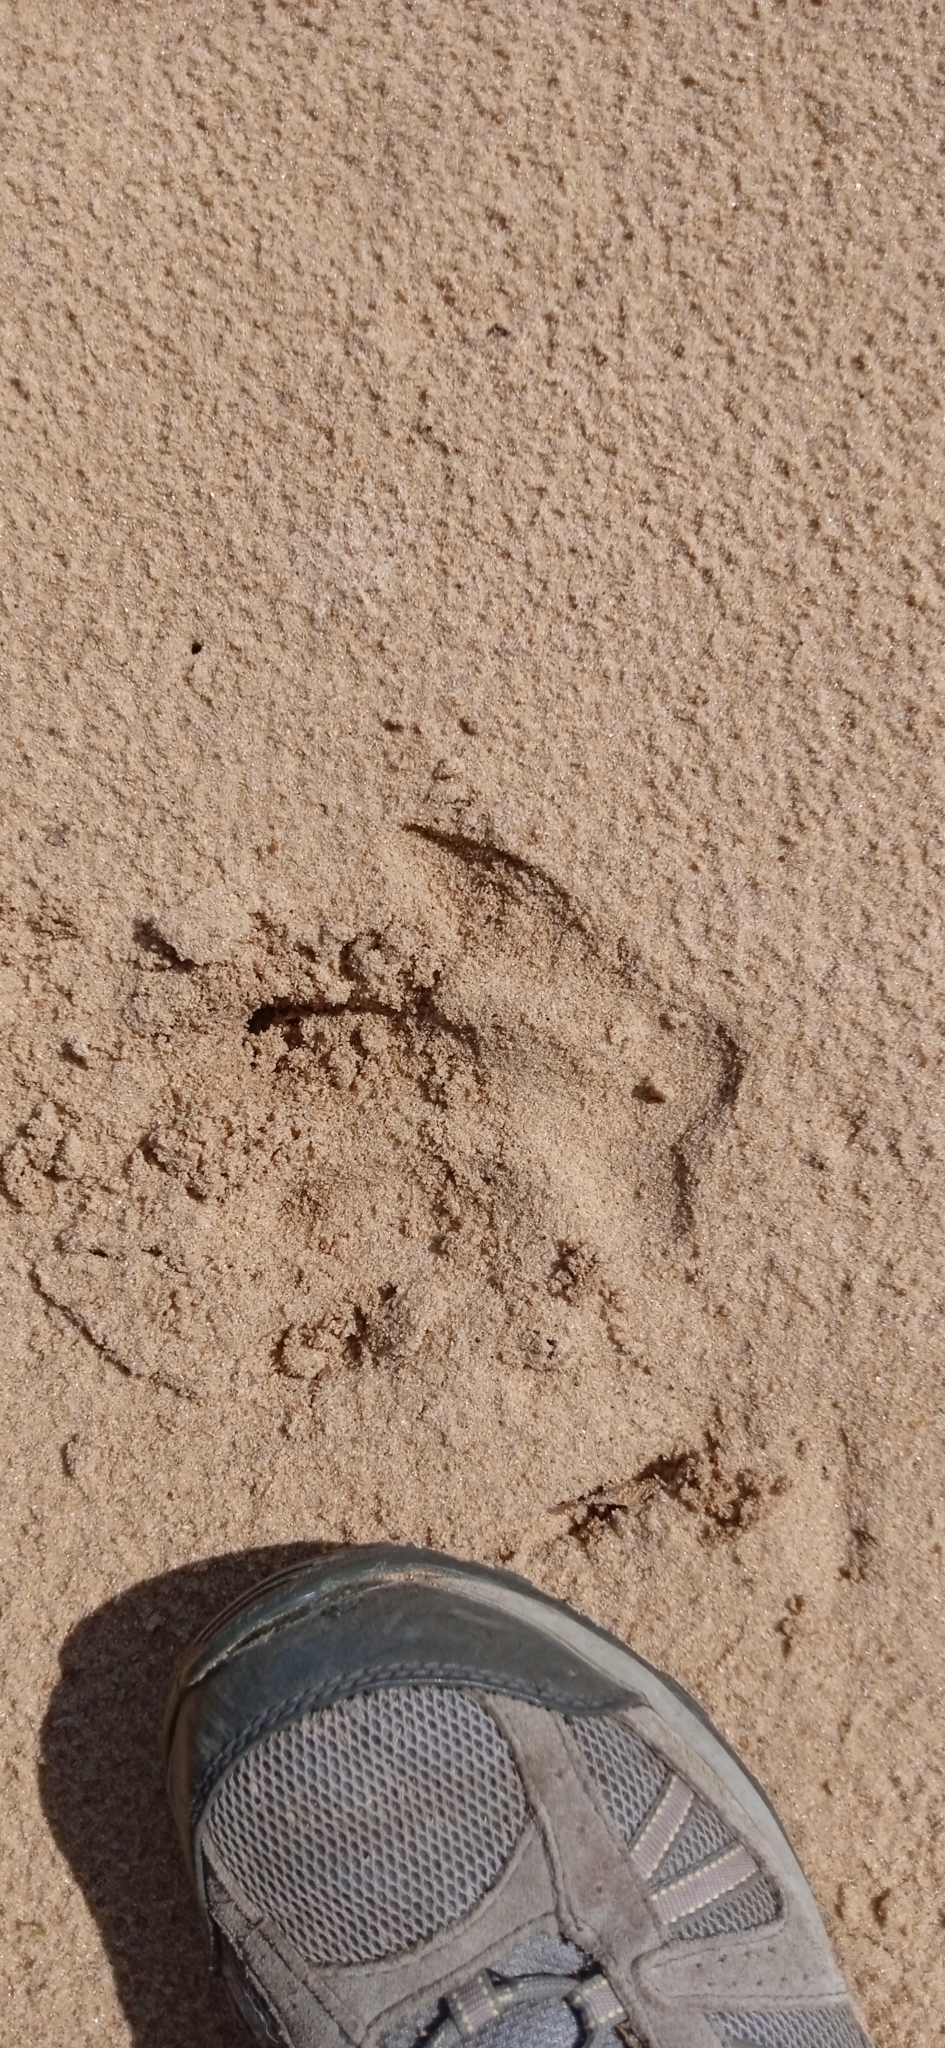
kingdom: Animalia
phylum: Chordata
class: Mammalia
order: Rodentia
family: Caviidae
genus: Hydrochoerus
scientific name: Hydrochoerus hydrochaeris
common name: Capybara
